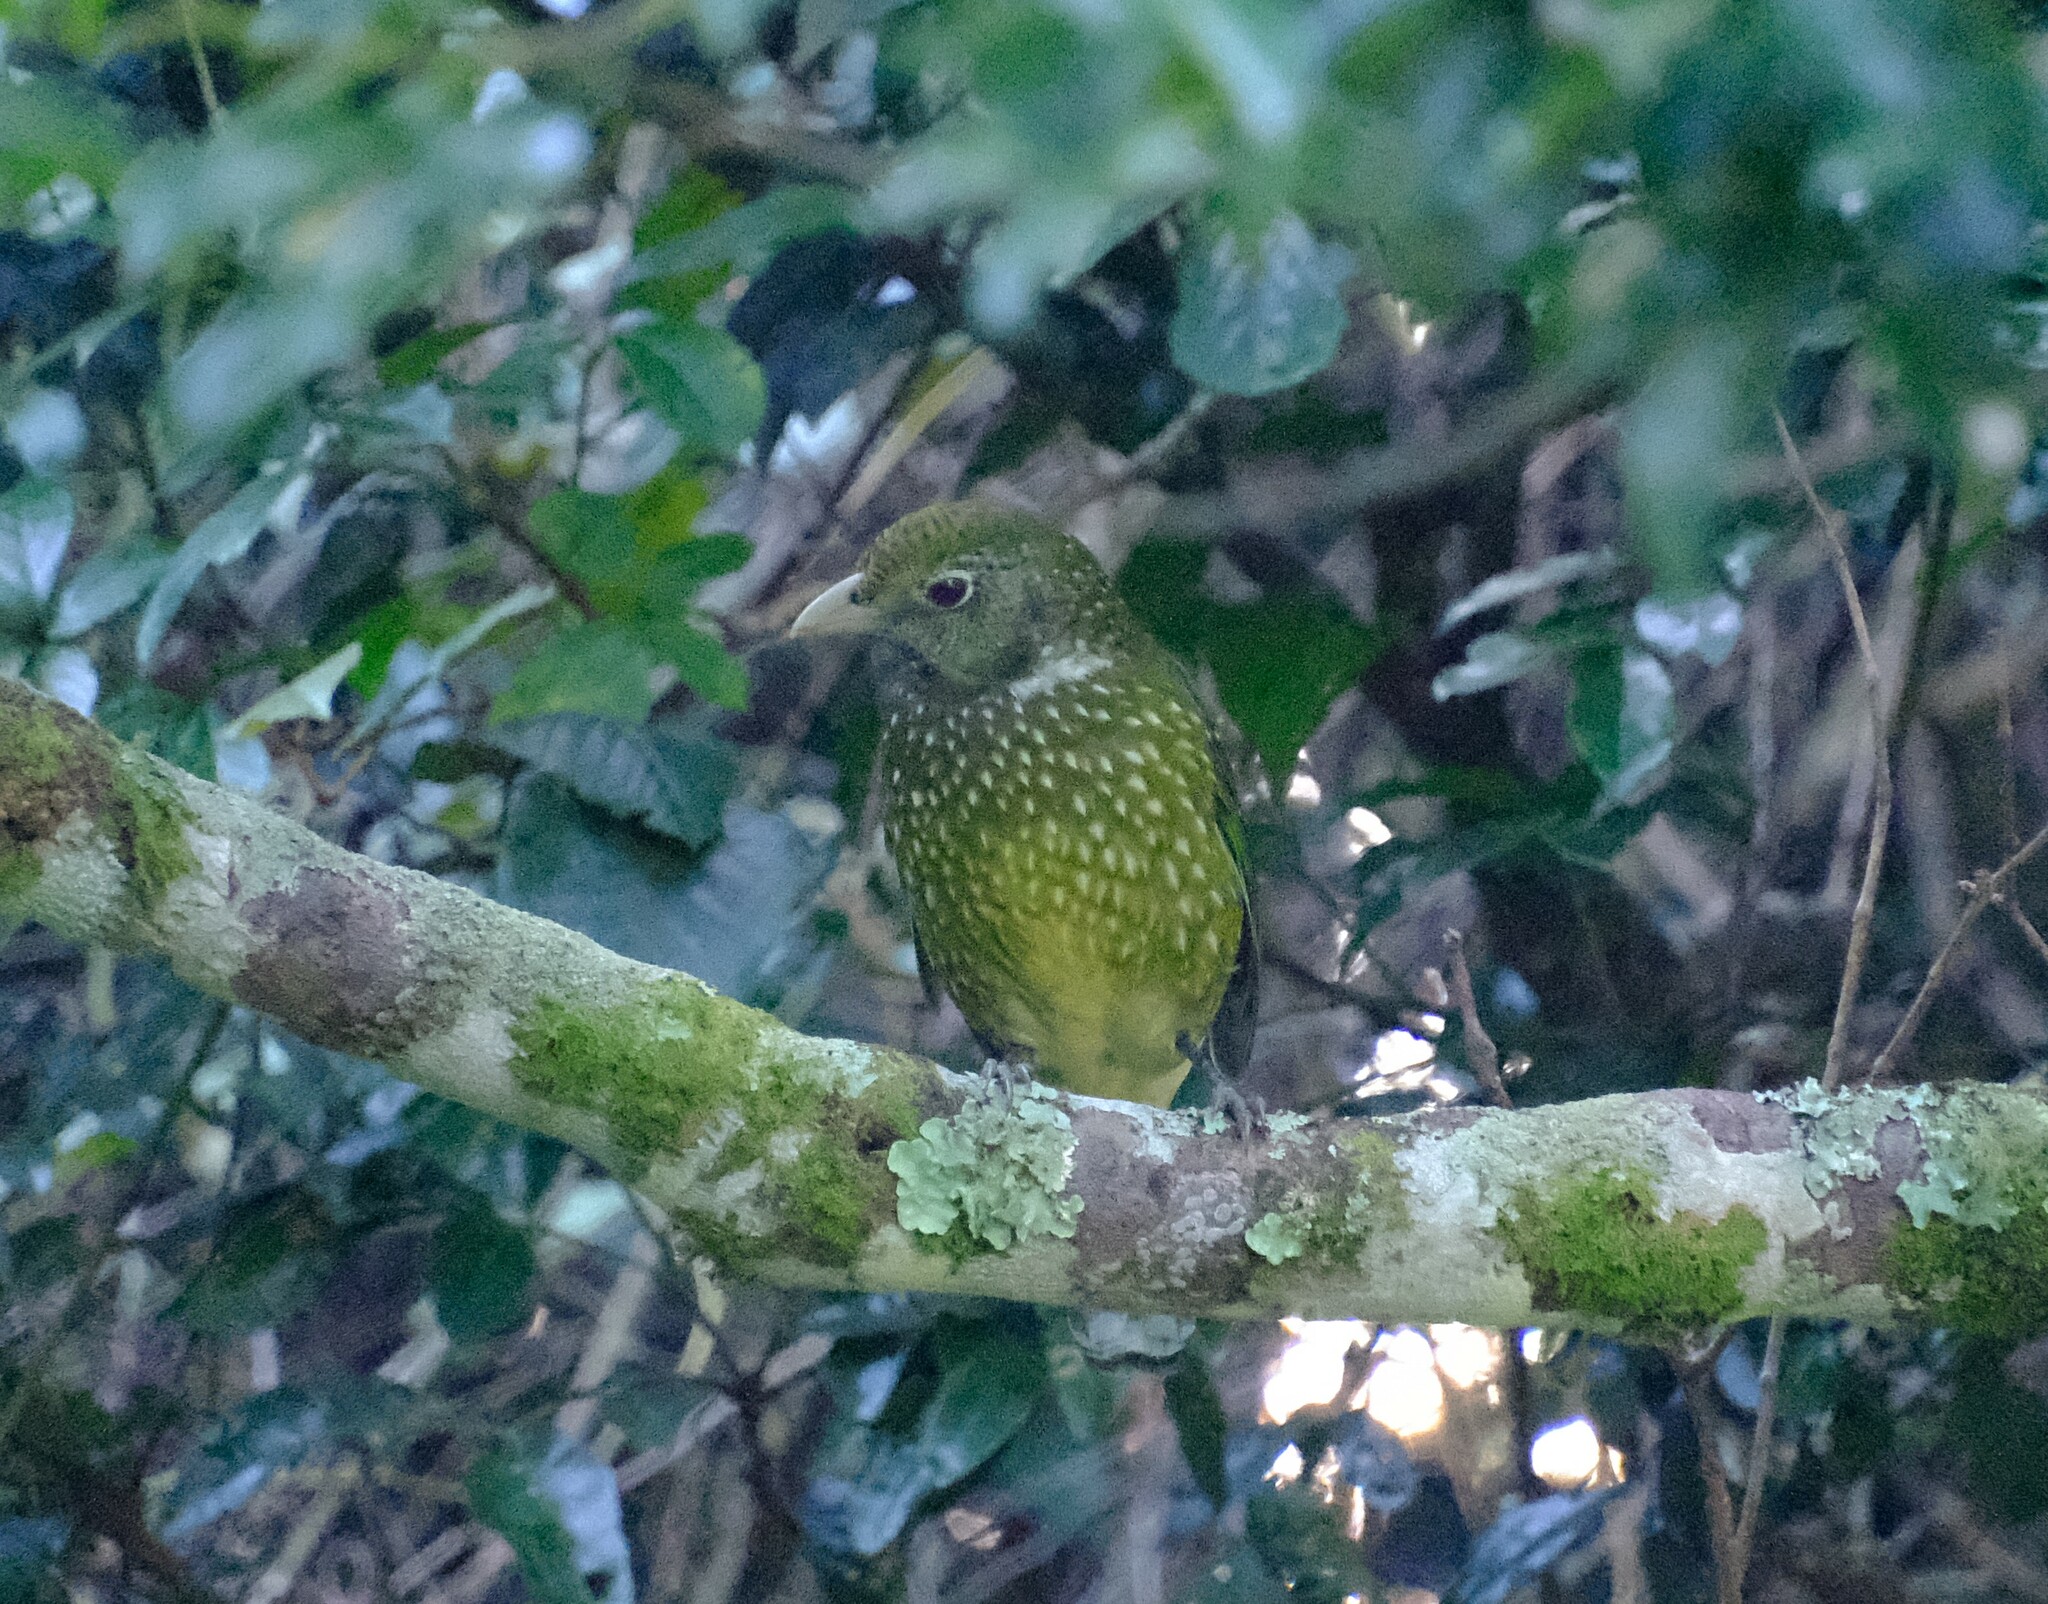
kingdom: Animalia
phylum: Chordata
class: Aves
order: Passeriformes
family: Ptilonorhynchidae
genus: Ailuroedus
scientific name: Ailuroedus crassirostris
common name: Green catbird
